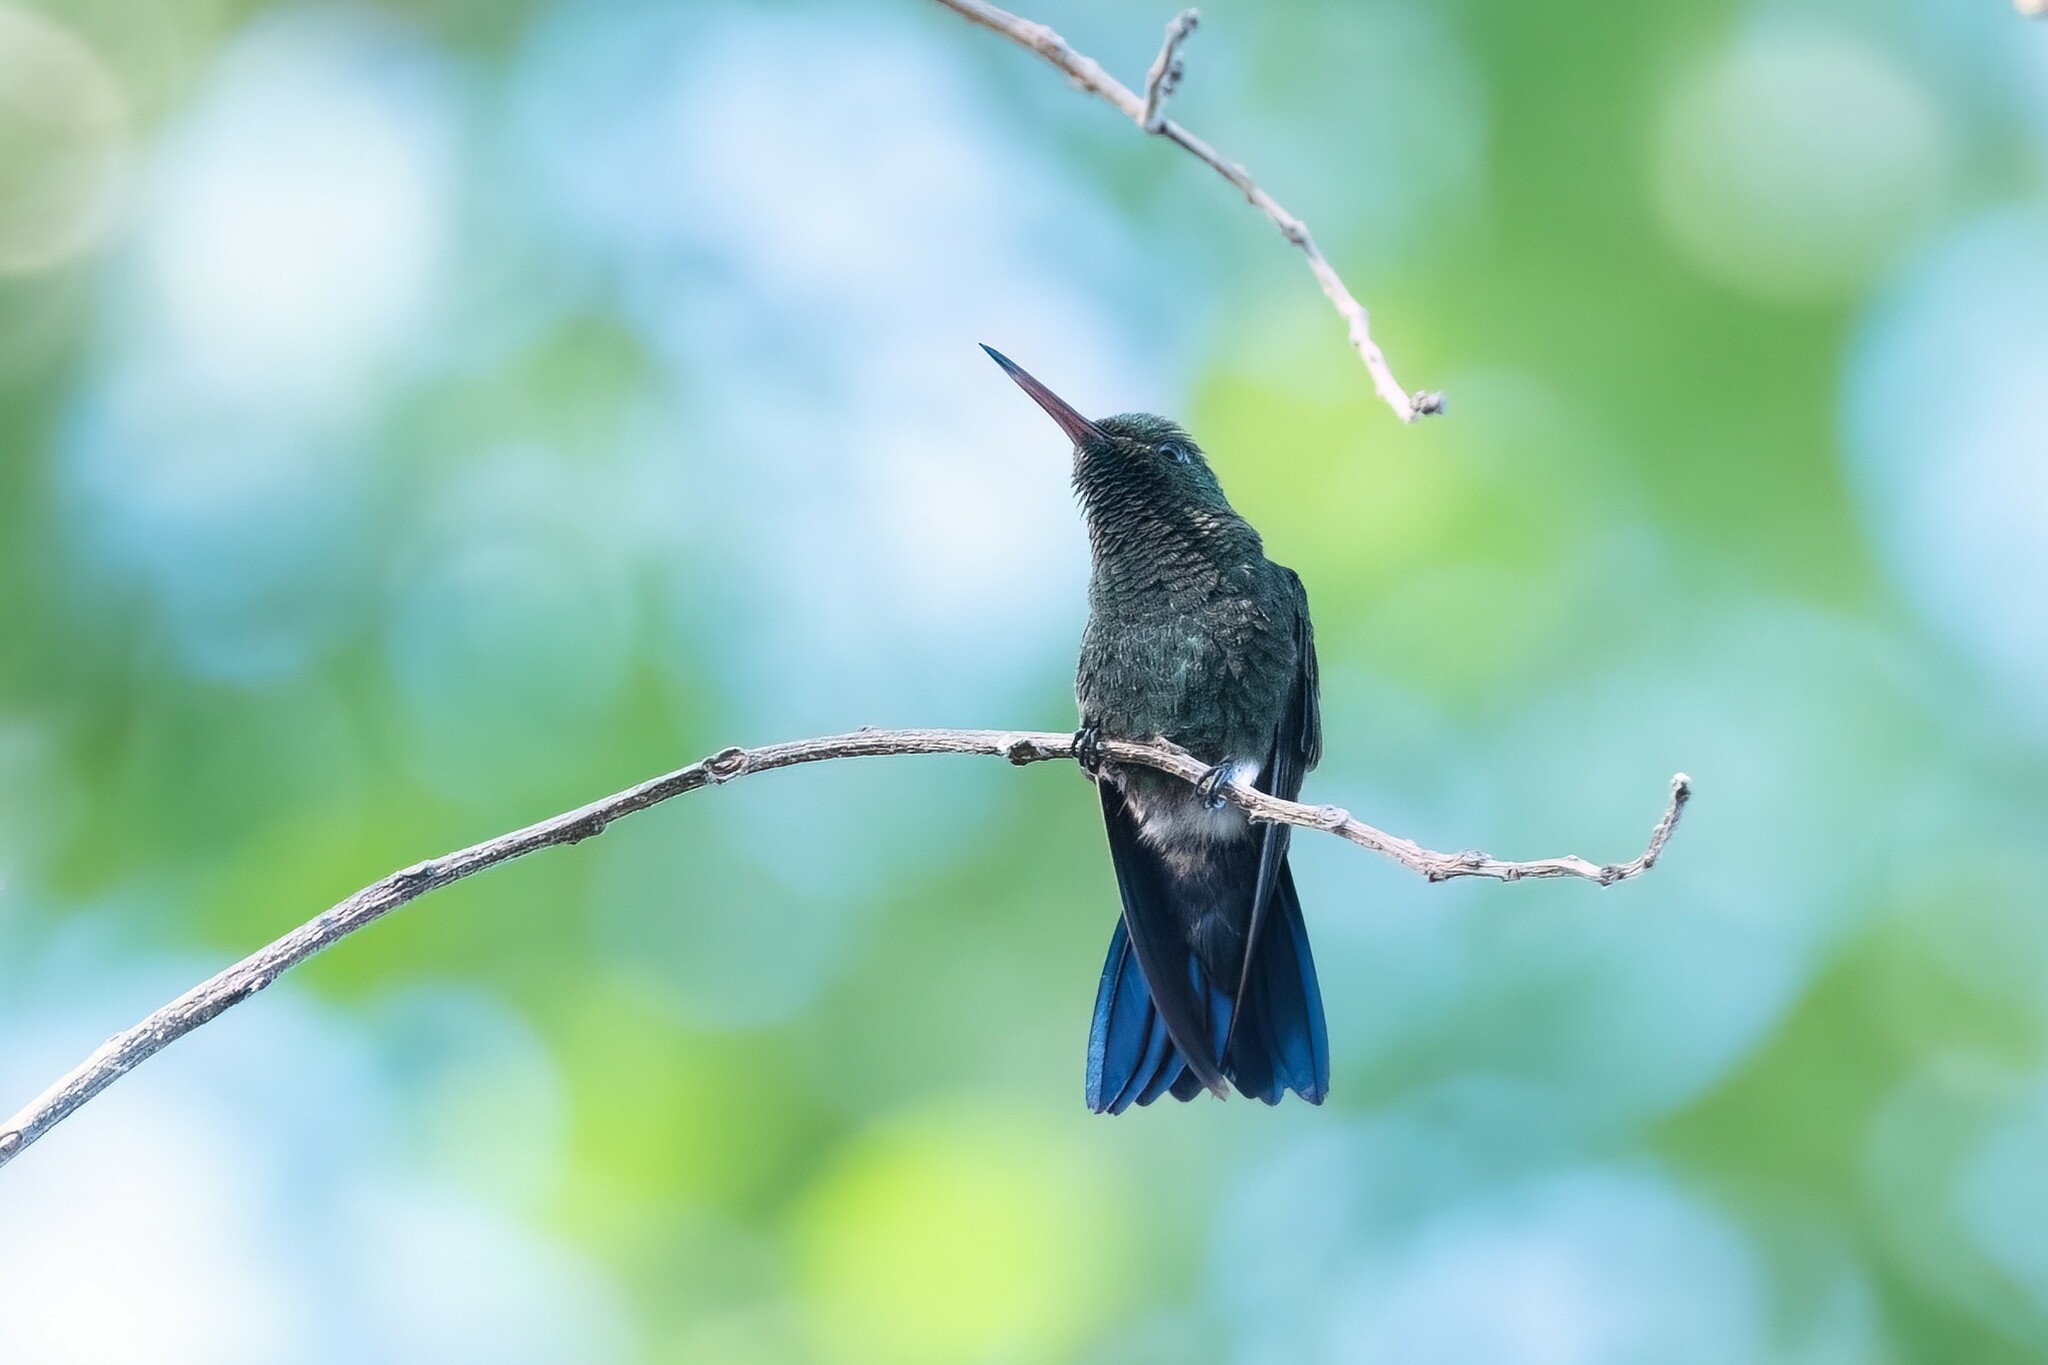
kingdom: Animalia
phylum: Chordata
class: Aves
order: Apodiformes
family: Trochilidae
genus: Saucerottia
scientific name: Saucerottia hoffmanni
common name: Blue-vented hummingbird
